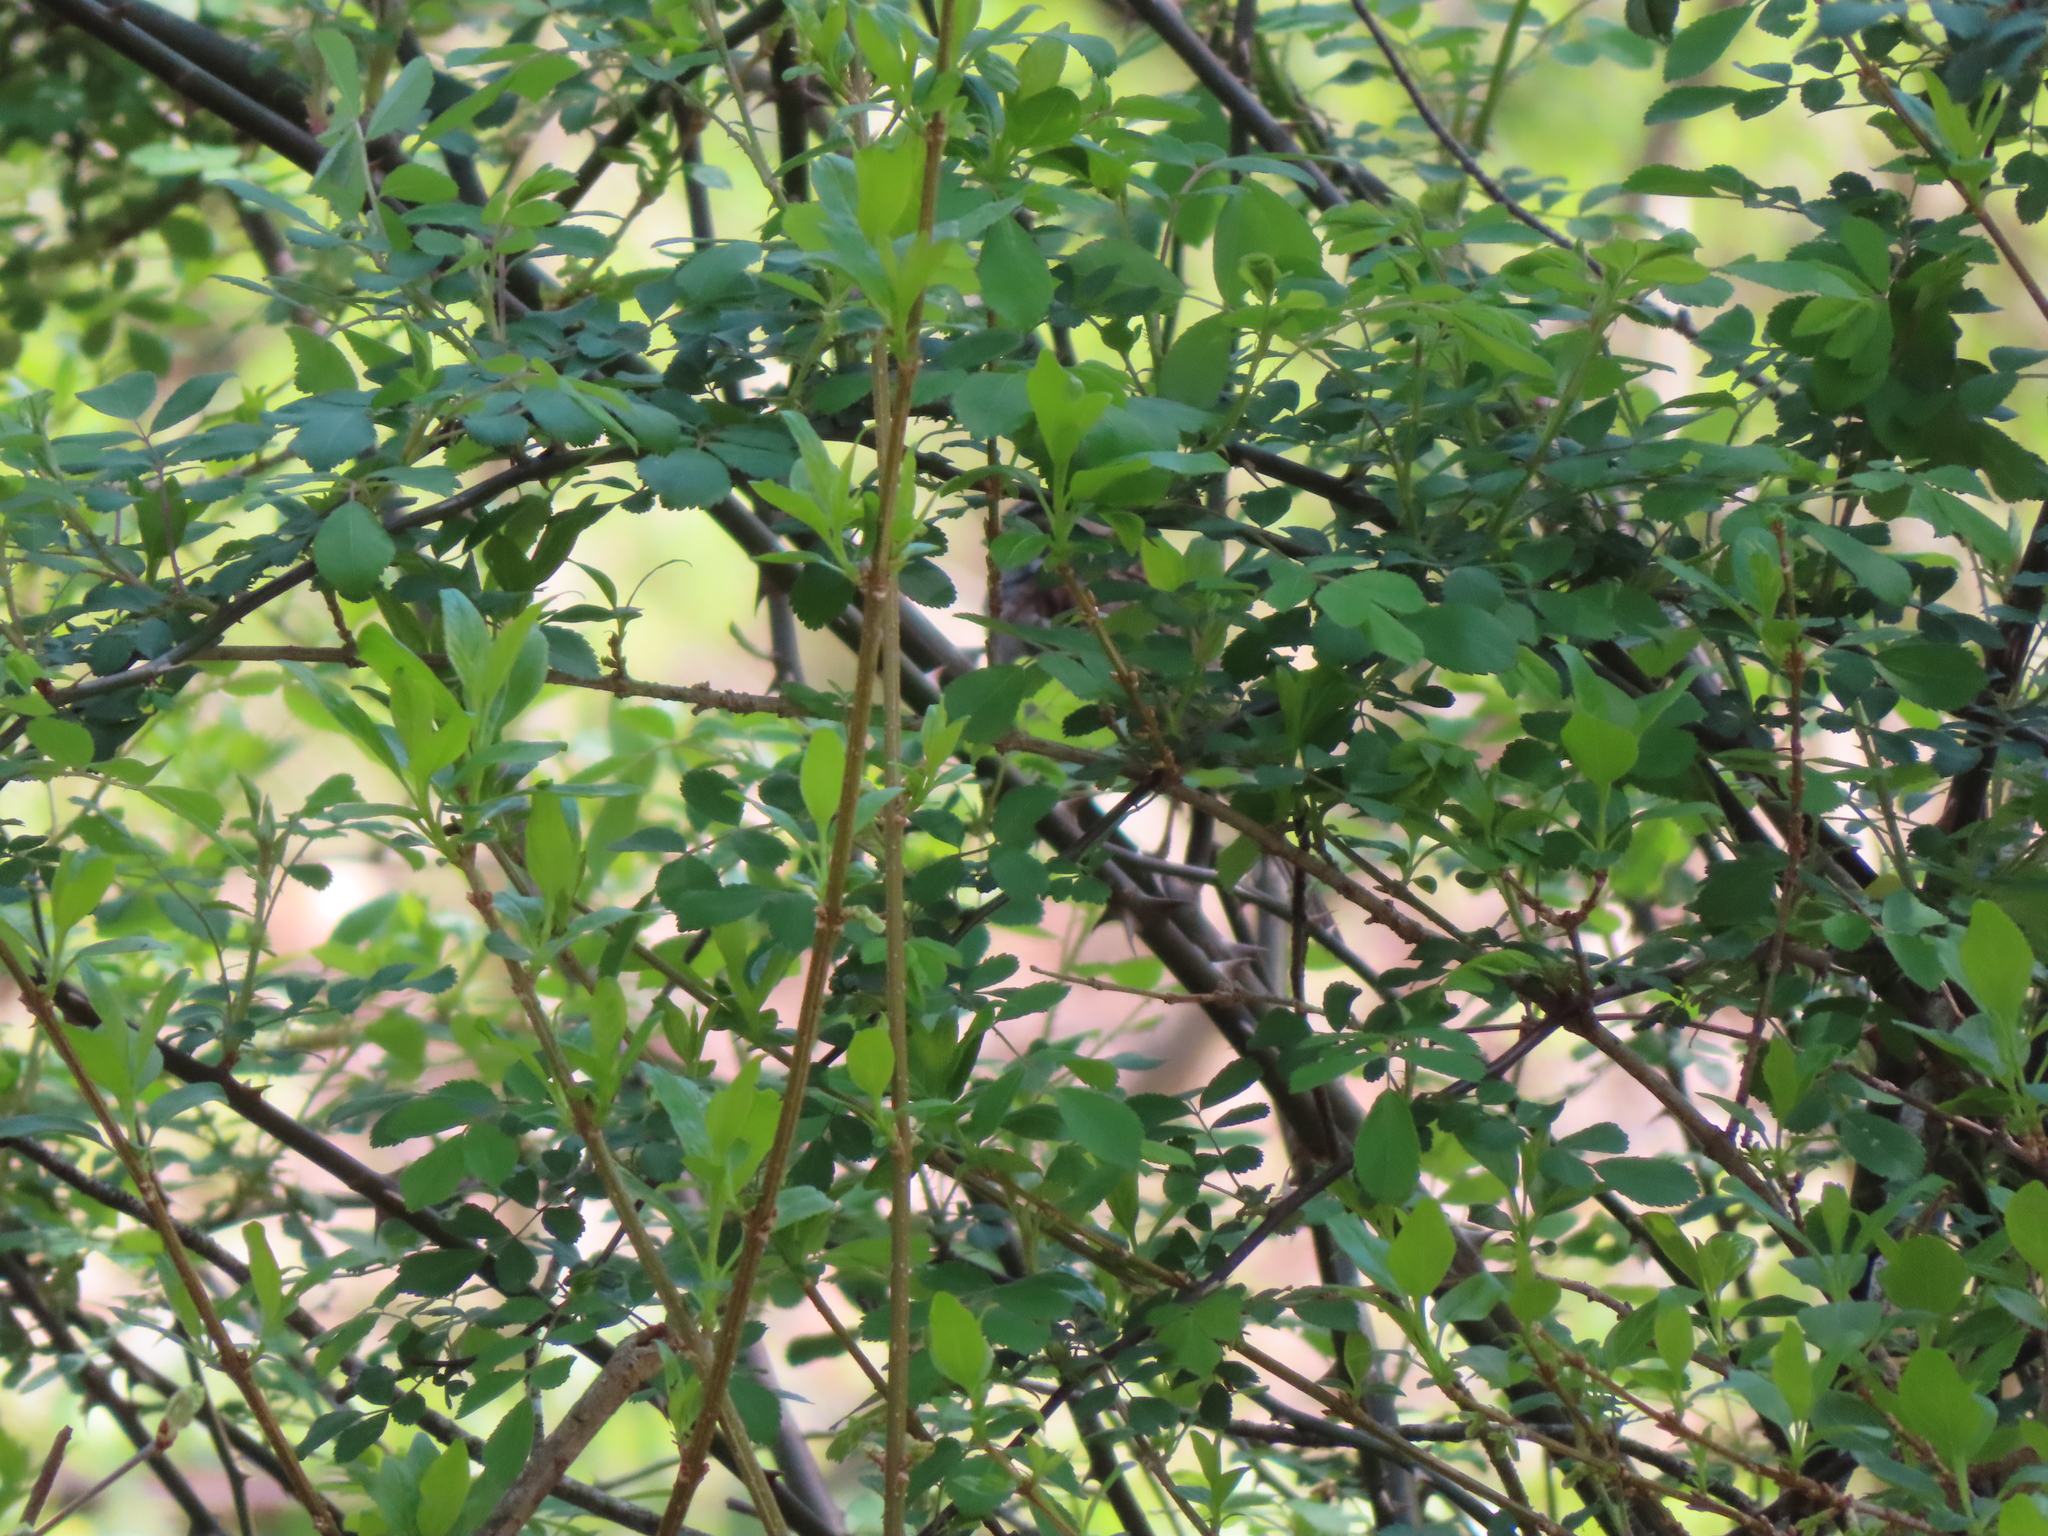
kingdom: Animalia
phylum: Chordata
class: Aves
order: Passeriformes
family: Passerellidae
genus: Zonotrichia
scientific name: Zonotrichia albicollis
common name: White-throated sparrow
